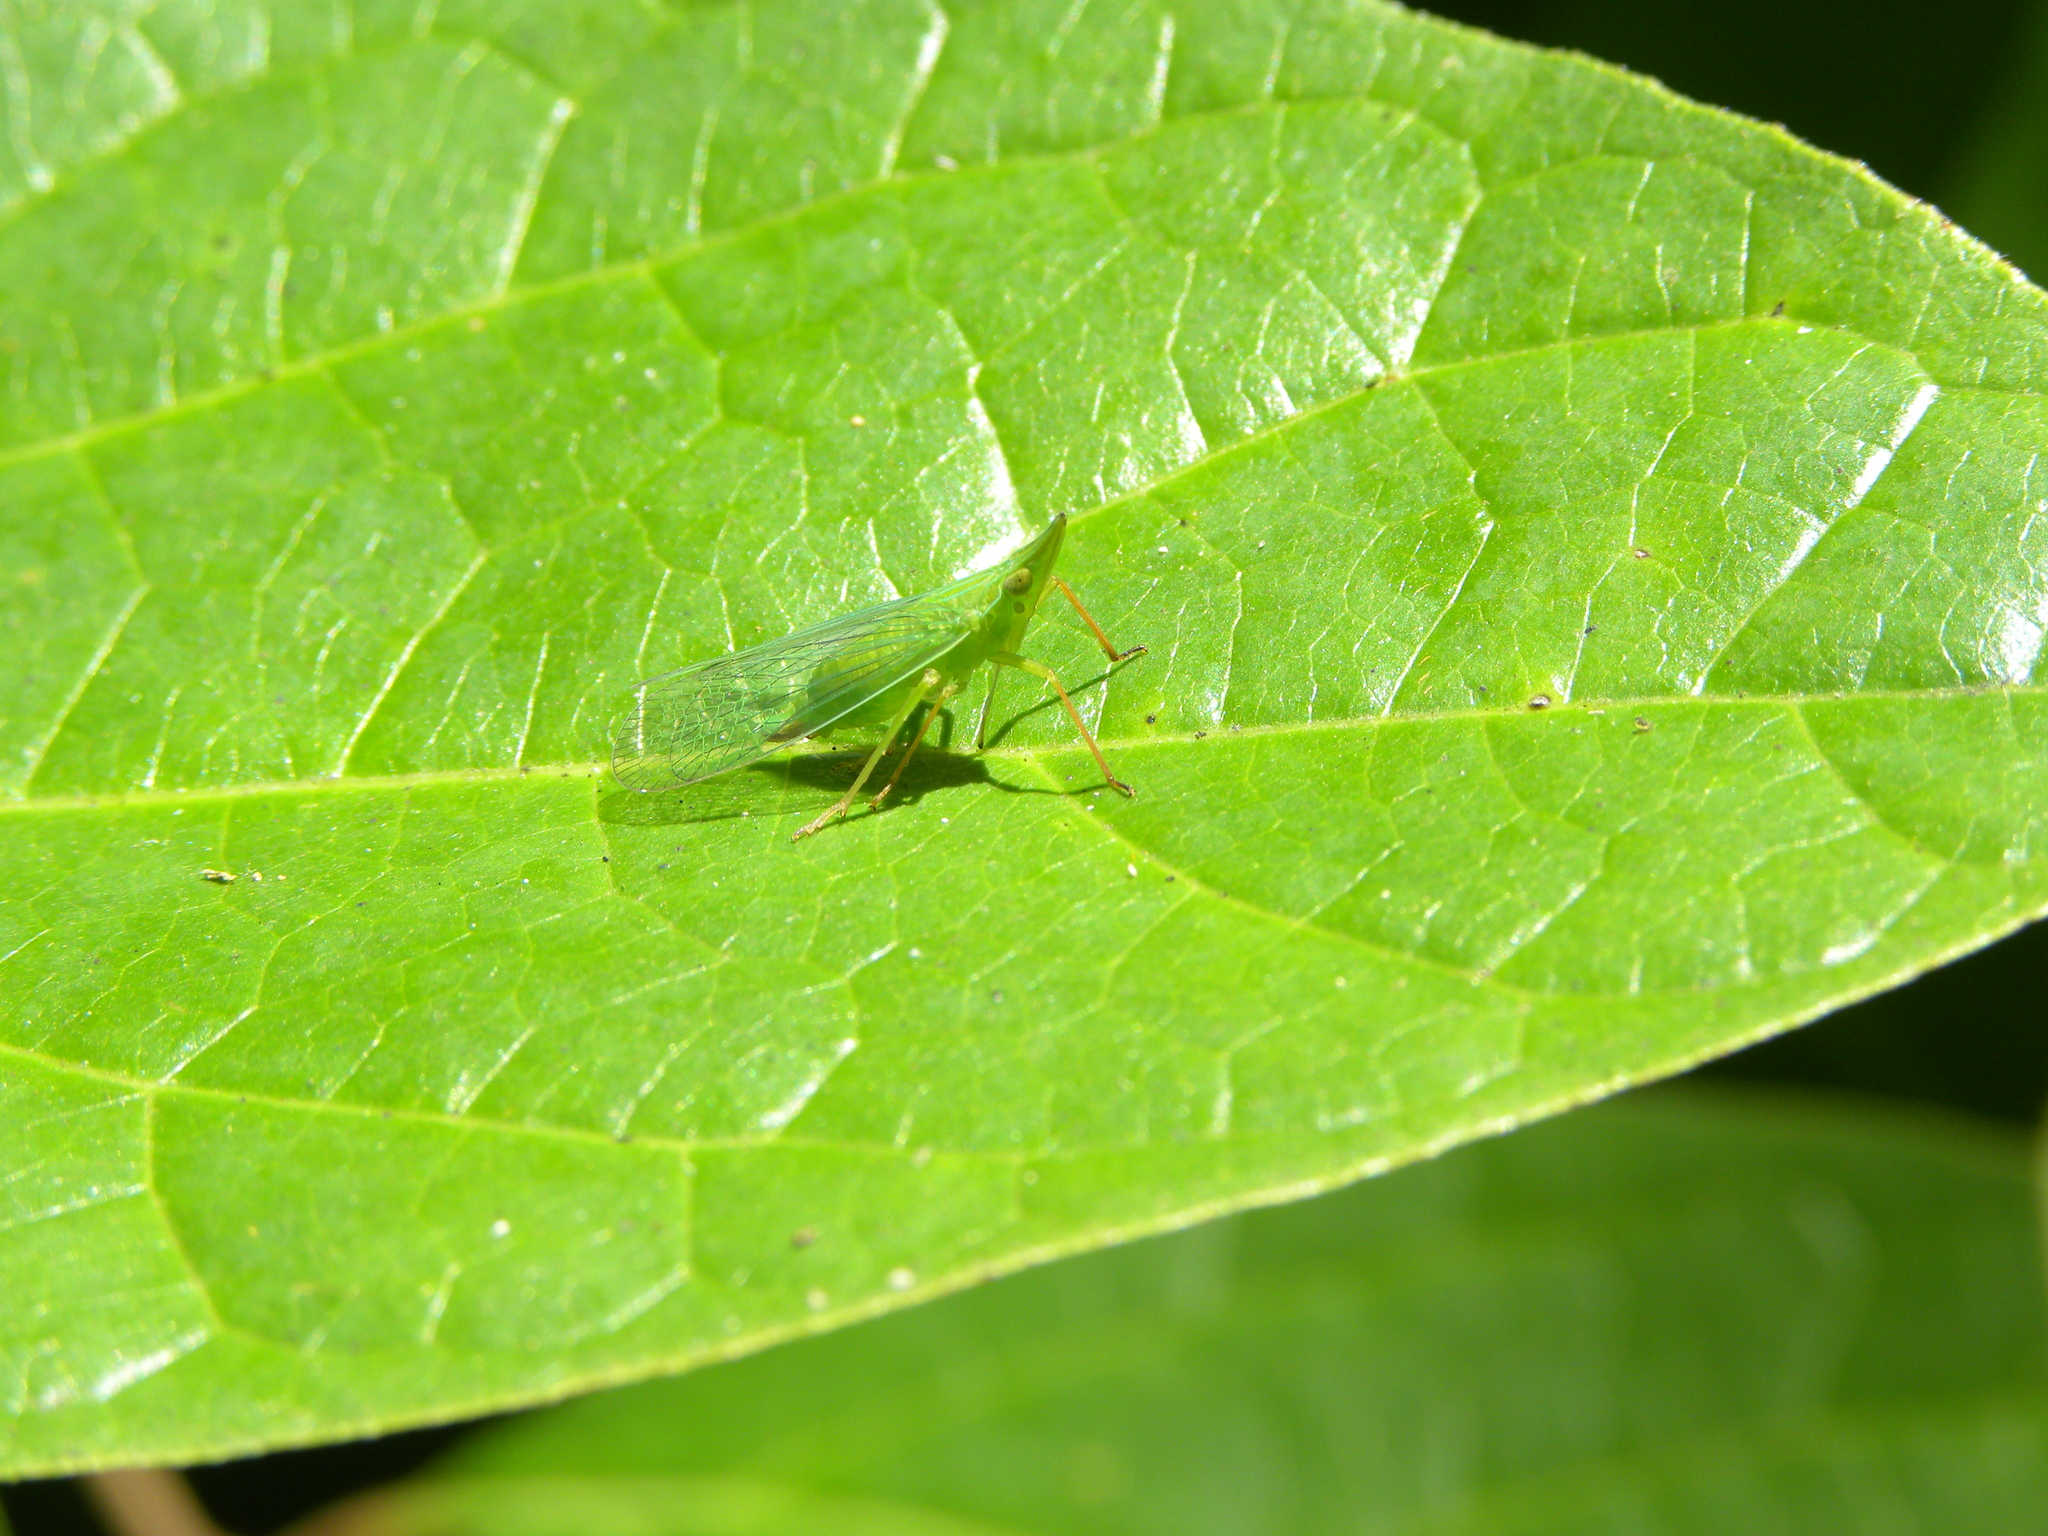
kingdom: Animalia
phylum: Arthropoda
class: Insecta
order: Hemiptera
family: Dictyopharidae
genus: Rhynchomitra
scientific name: Rhynchomitra microrhina
